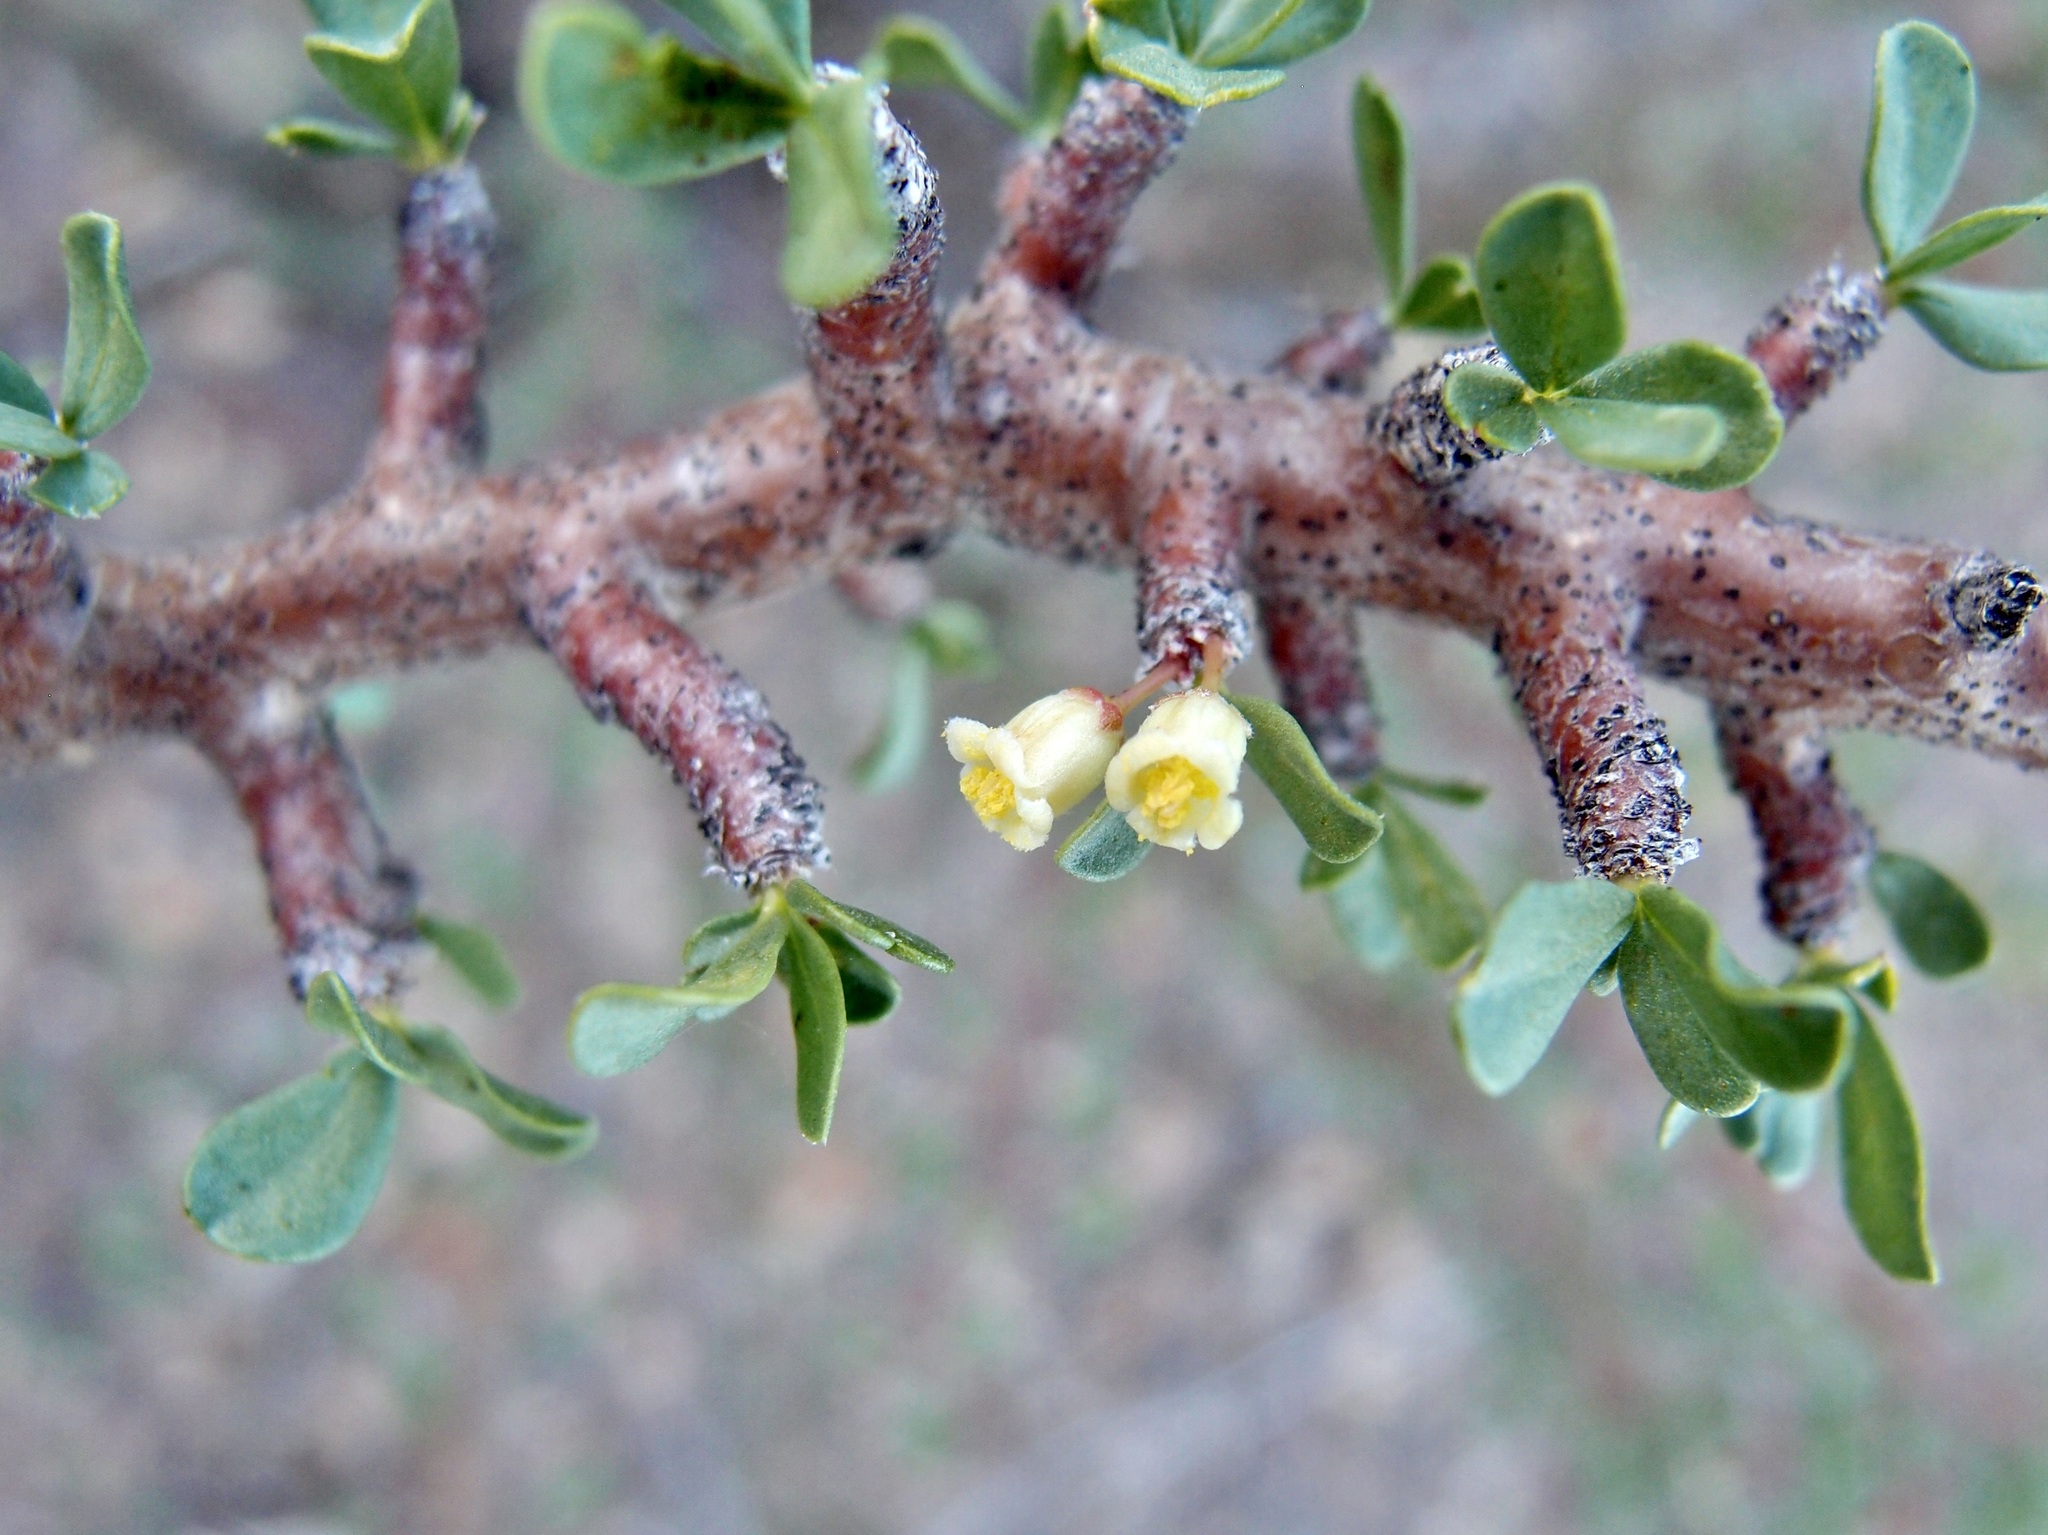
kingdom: Plantae
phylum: Tracheophyta
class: Magnoliopsida
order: Malpighiales
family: Euphorbiaceae
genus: Jatropha
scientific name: Jatropha cuneata
